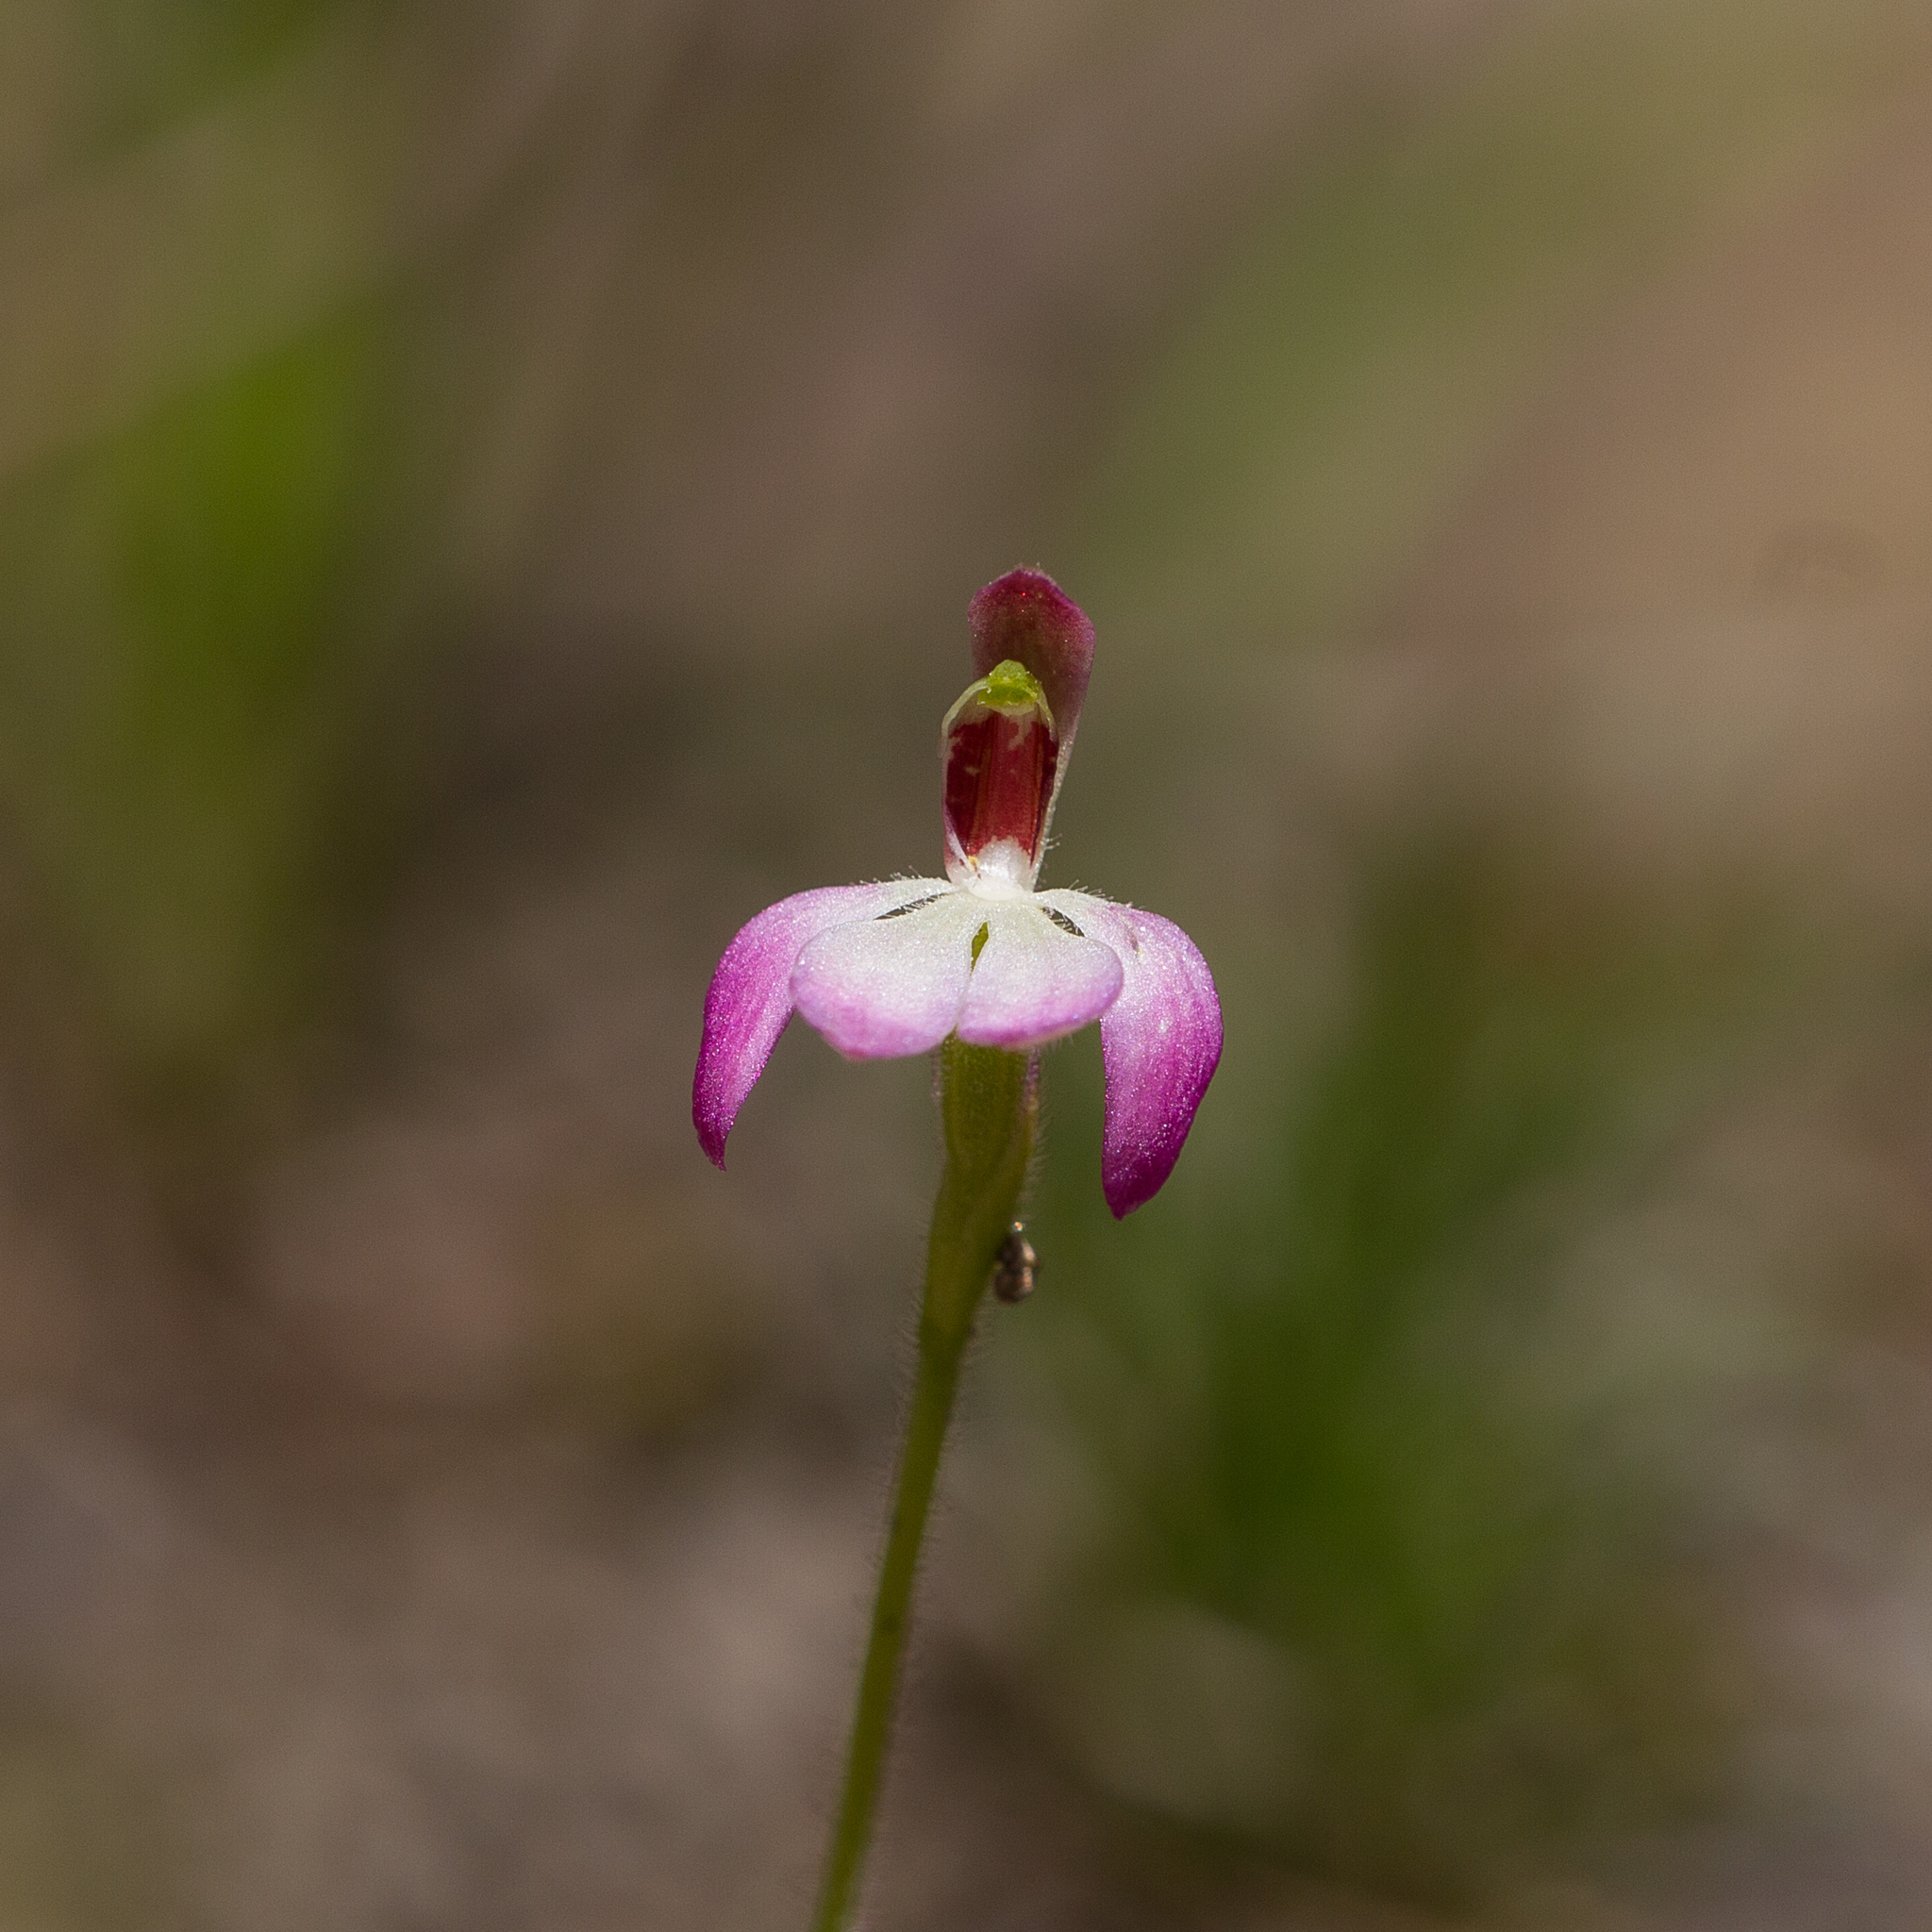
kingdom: Plantae
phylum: Tracheophyta
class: Liliopsida
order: Asparagales
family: Orchidaceae
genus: Caladenia
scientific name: Caladenia pusilla
